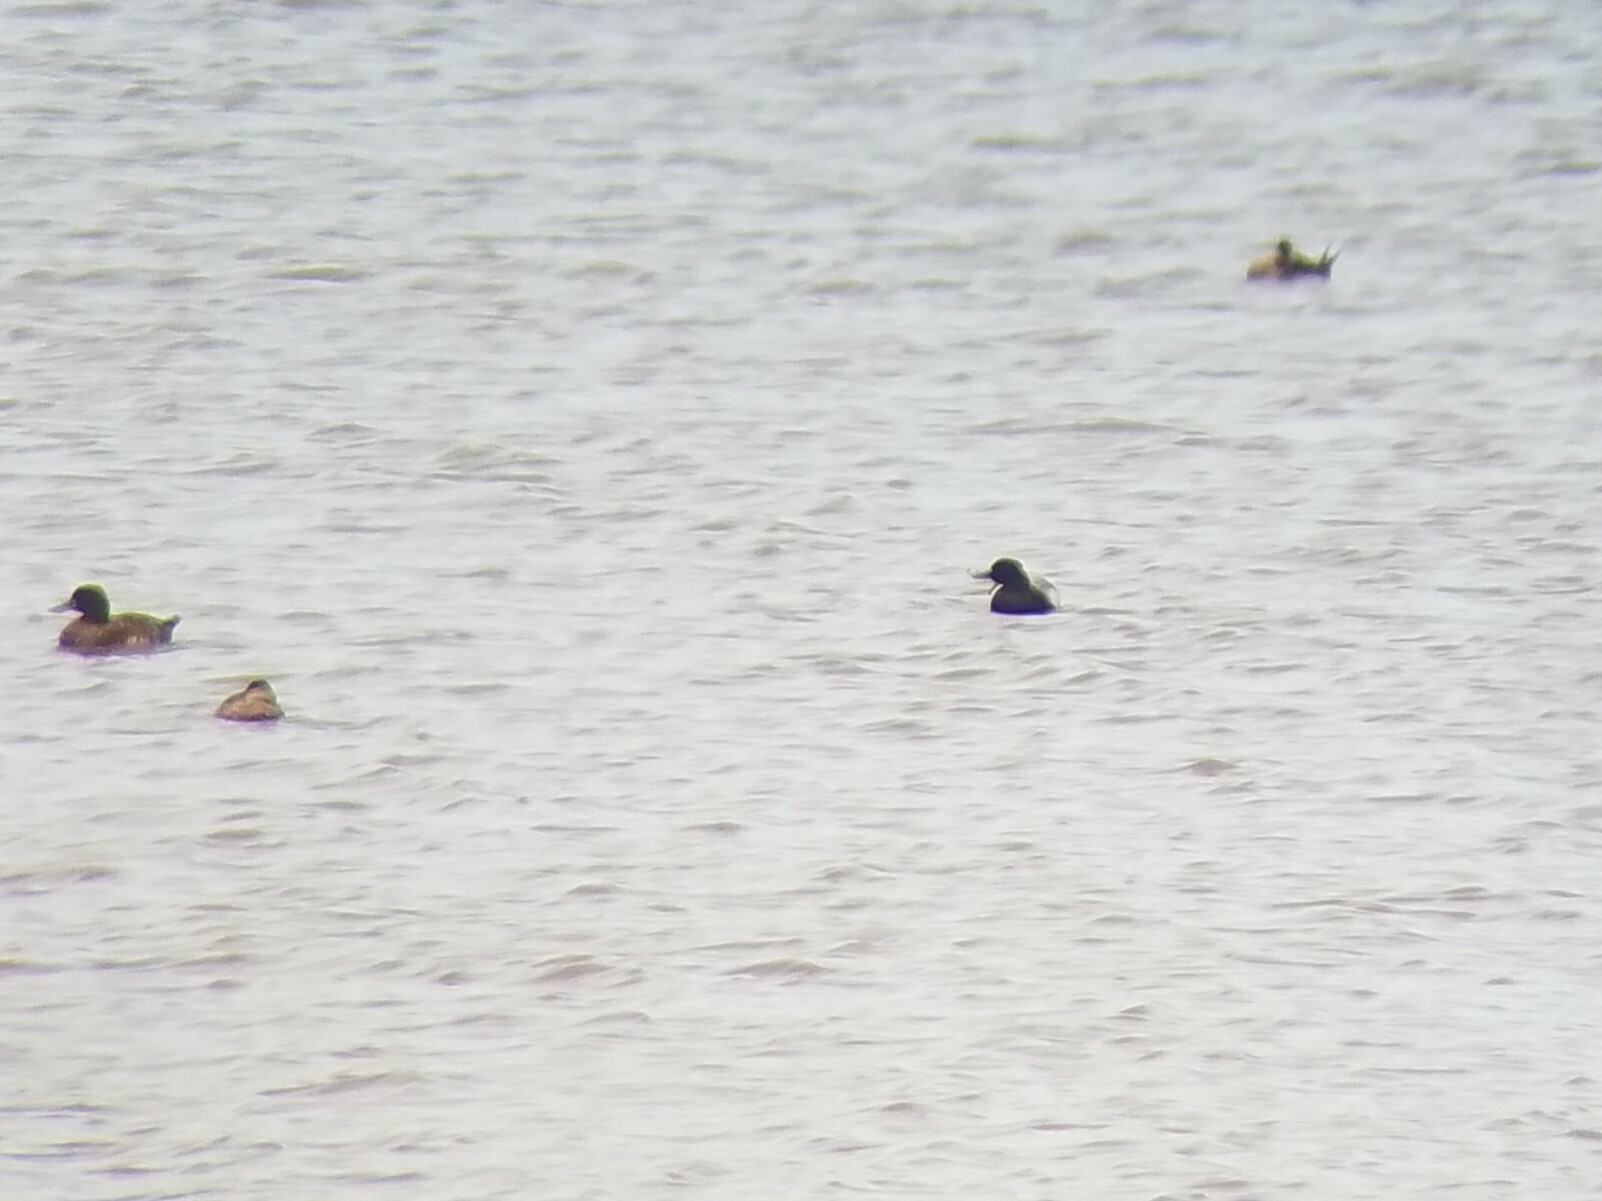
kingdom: Animalia
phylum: Chordata
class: Aves
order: Anseriformes
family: Anatidae
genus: Aythya
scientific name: Aythya affinis
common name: Lesser scaup
